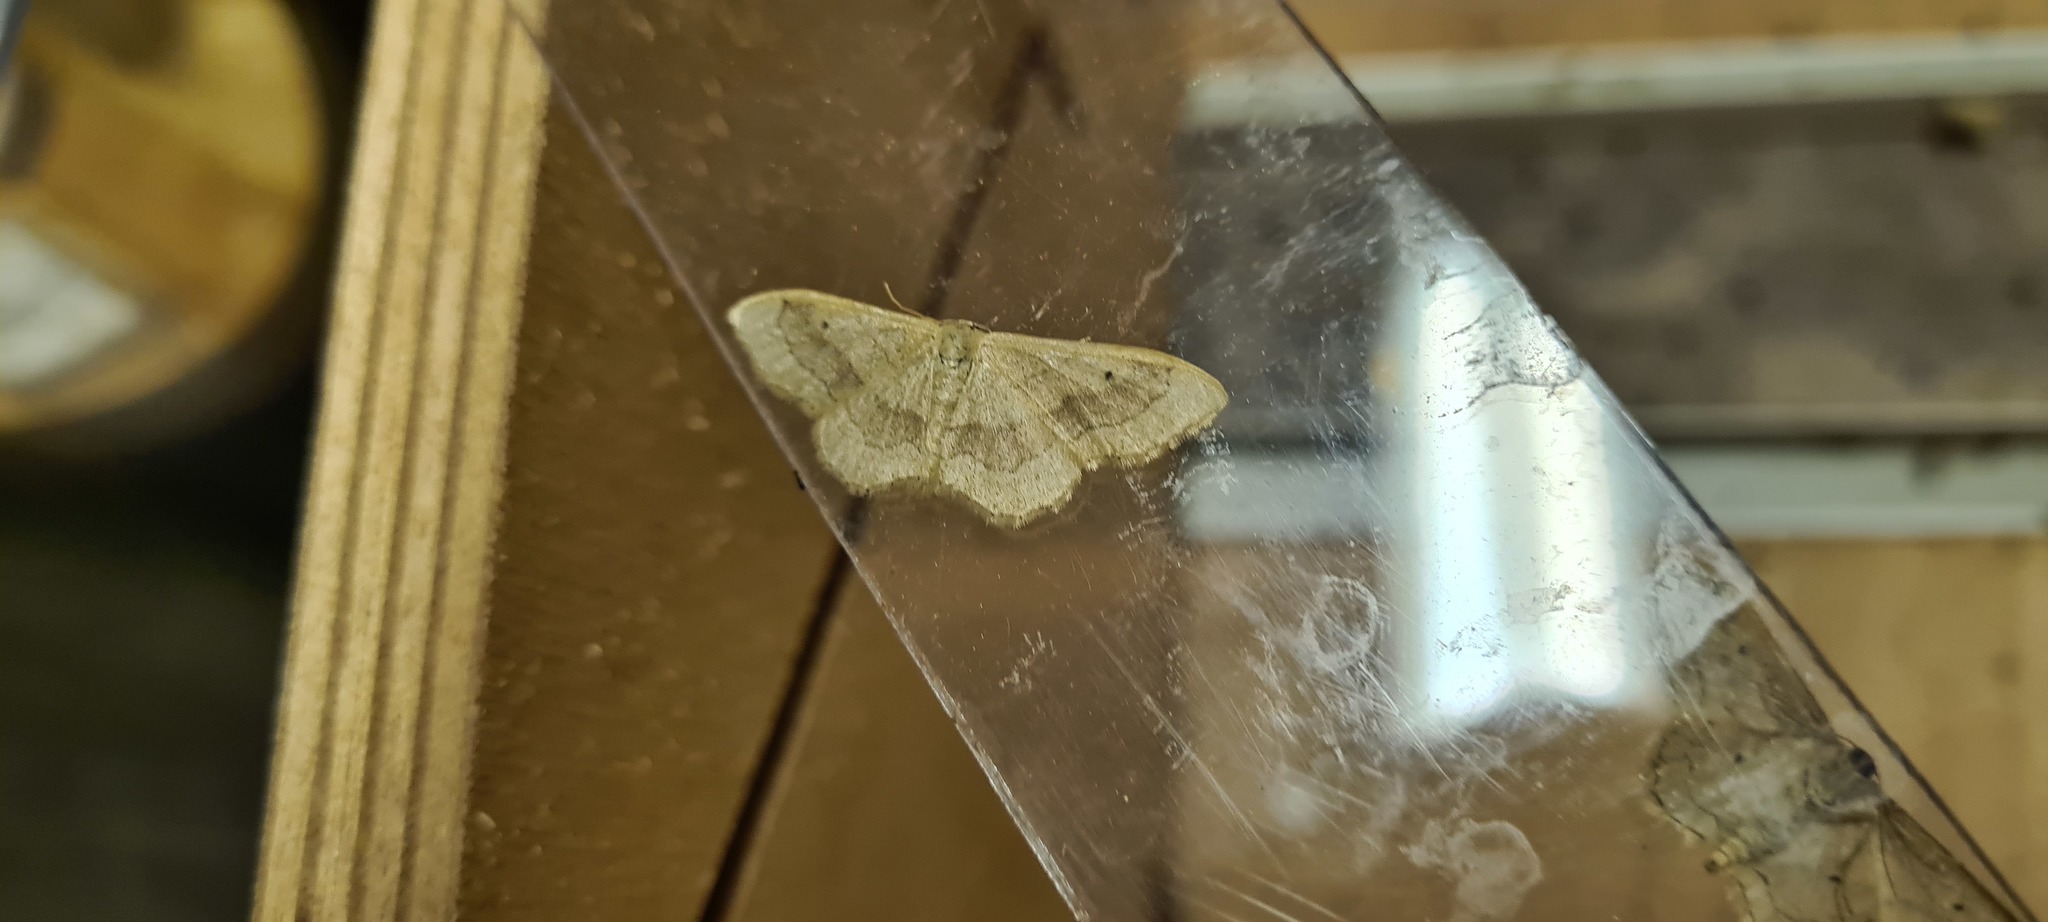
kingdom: Animalia
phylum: Arthropoda
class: Insecta
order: Lepidoptera
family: Geometridae
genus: Idaea
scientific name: Idaea aversata
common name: Riband wave
